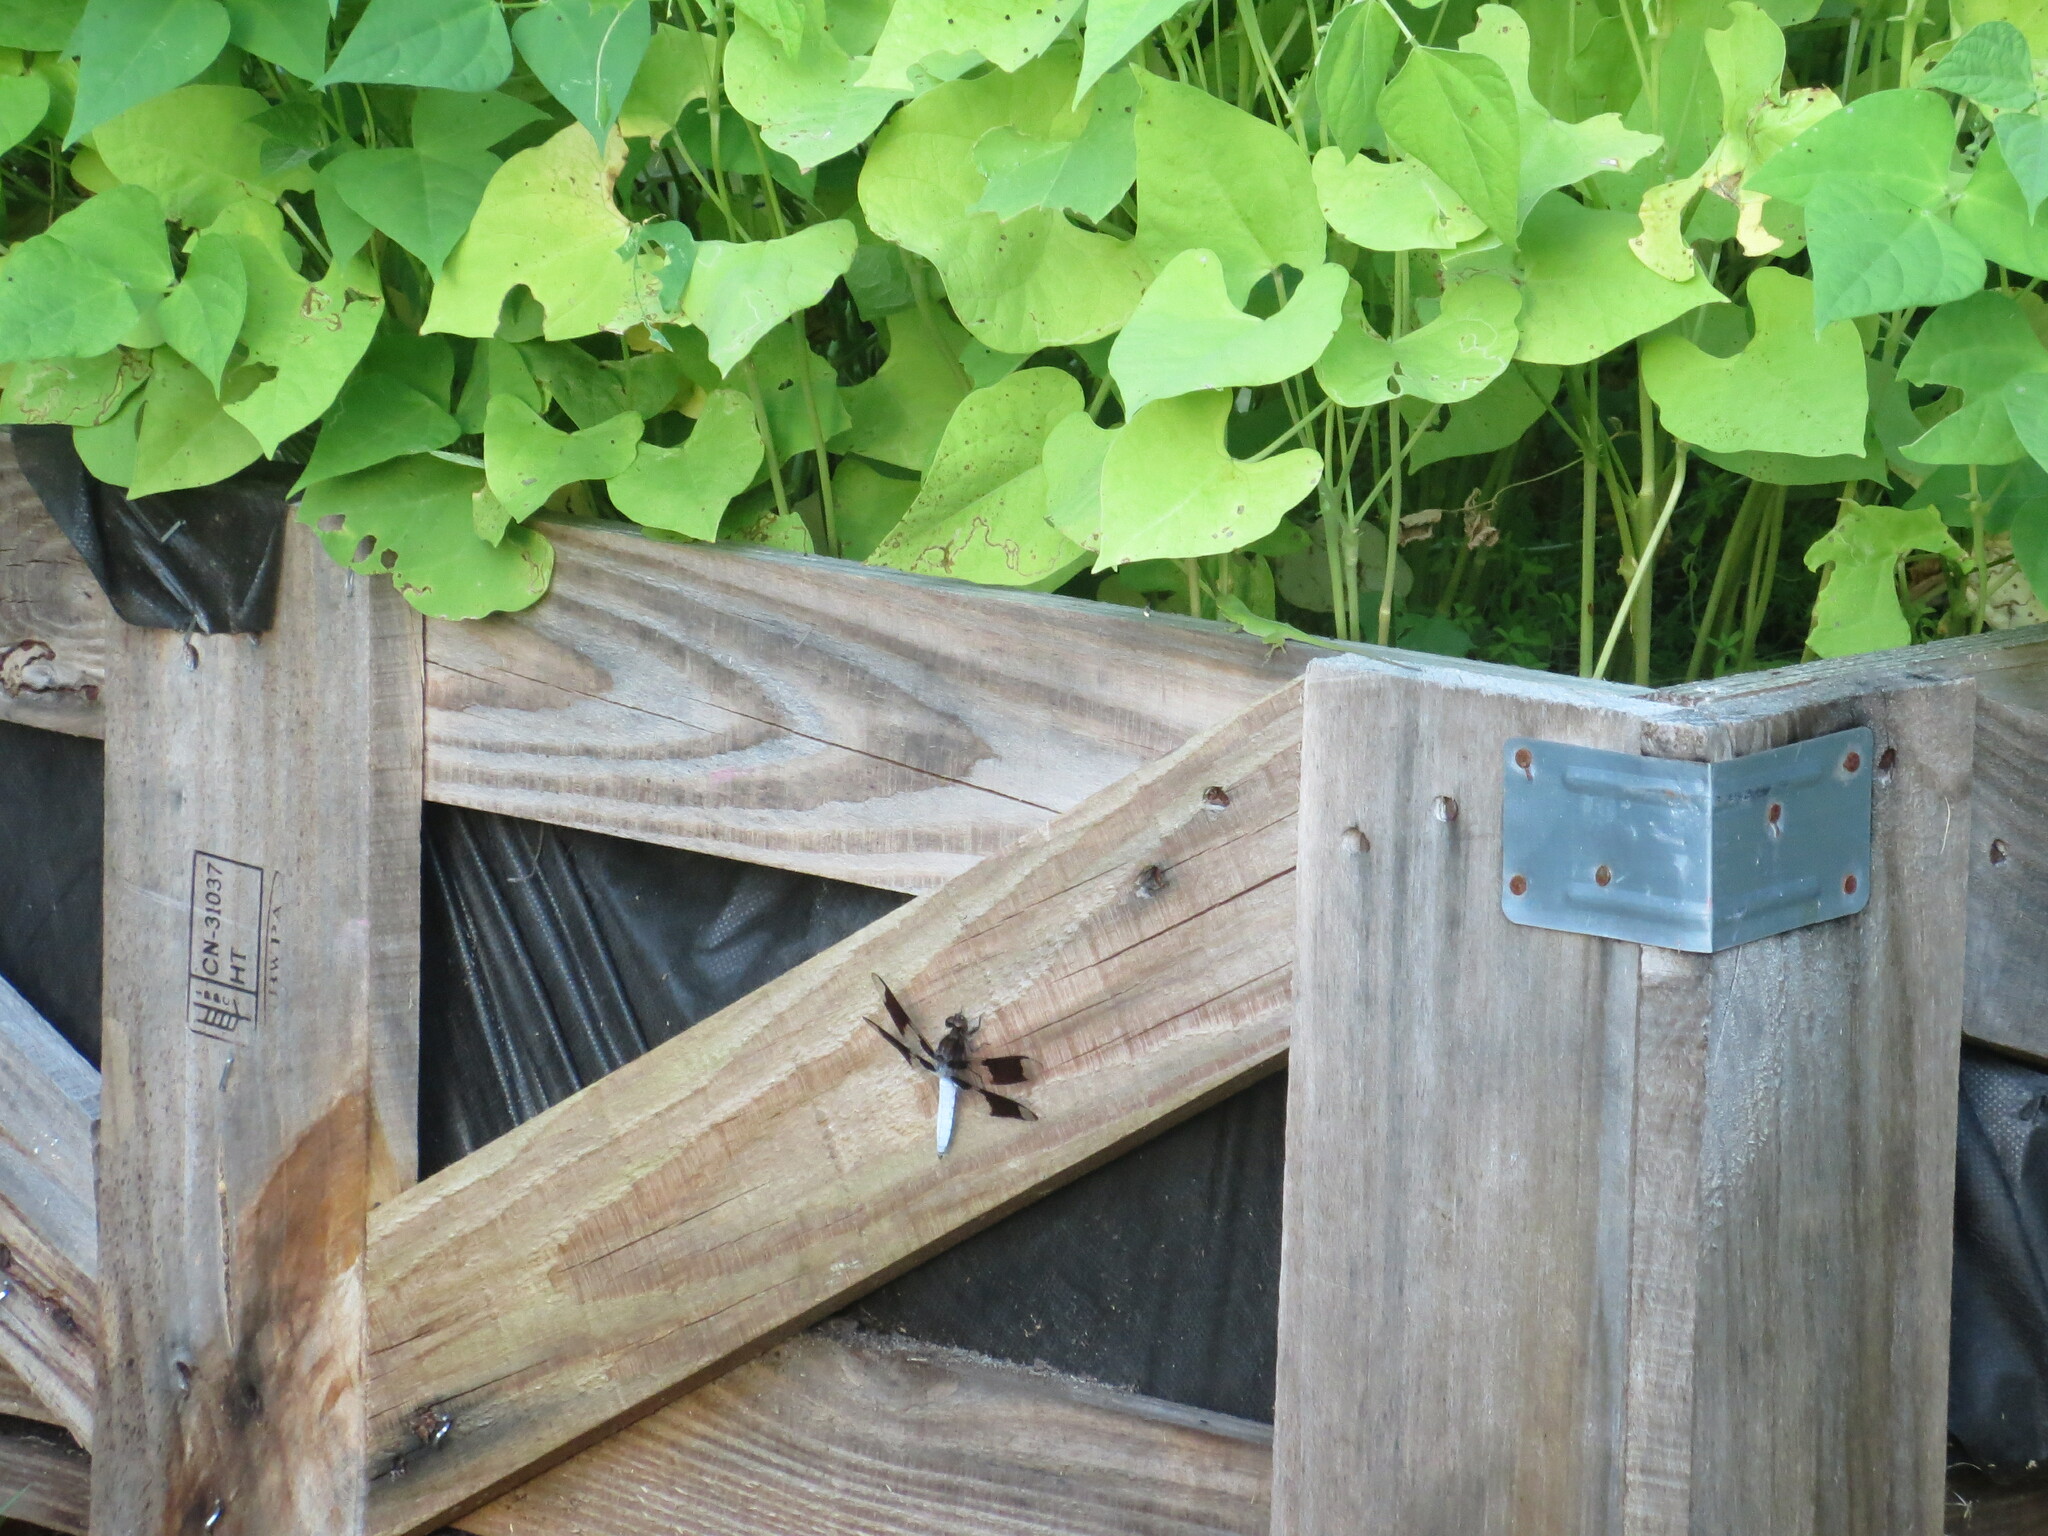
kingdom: Animalia
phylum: Arthropoda
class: Insecta
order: Odonata
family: Libellulidae
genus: Plathemis
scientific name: Plathemis lydia
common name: Common whitetail
